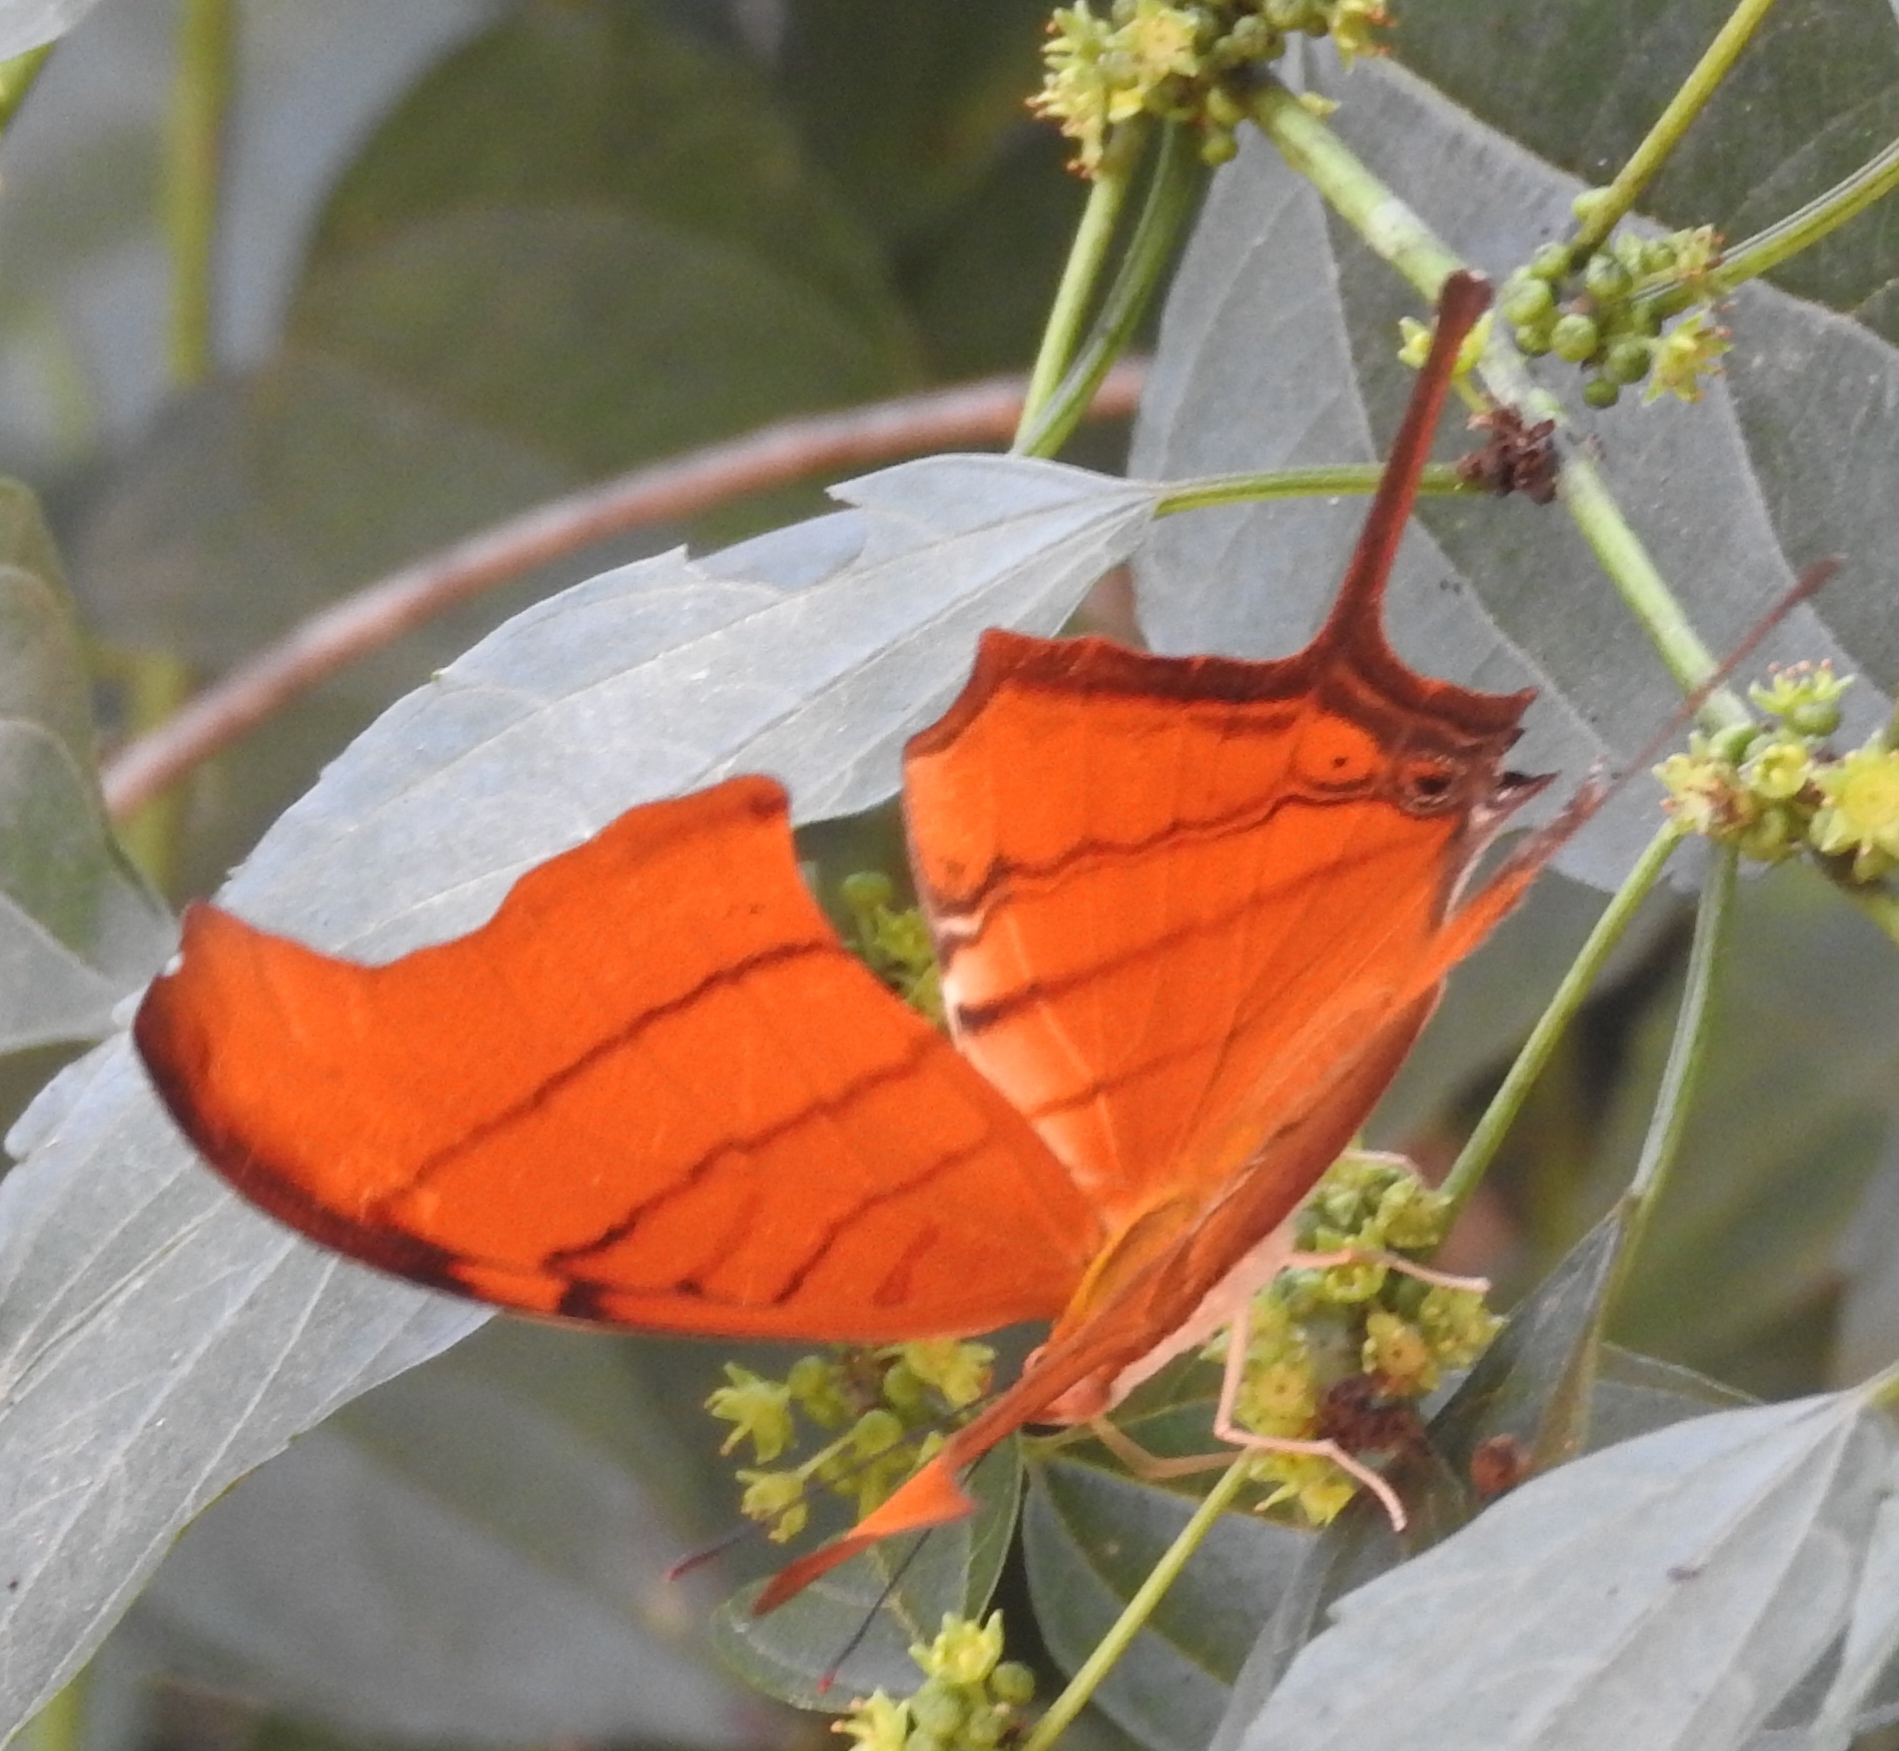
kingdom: Animalia
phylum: Arthropoda
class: Insecta
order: Lepidoptera
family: Nymphalidae
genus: Marpesia
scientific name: Marpesia petreus
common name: Red dagger wing
